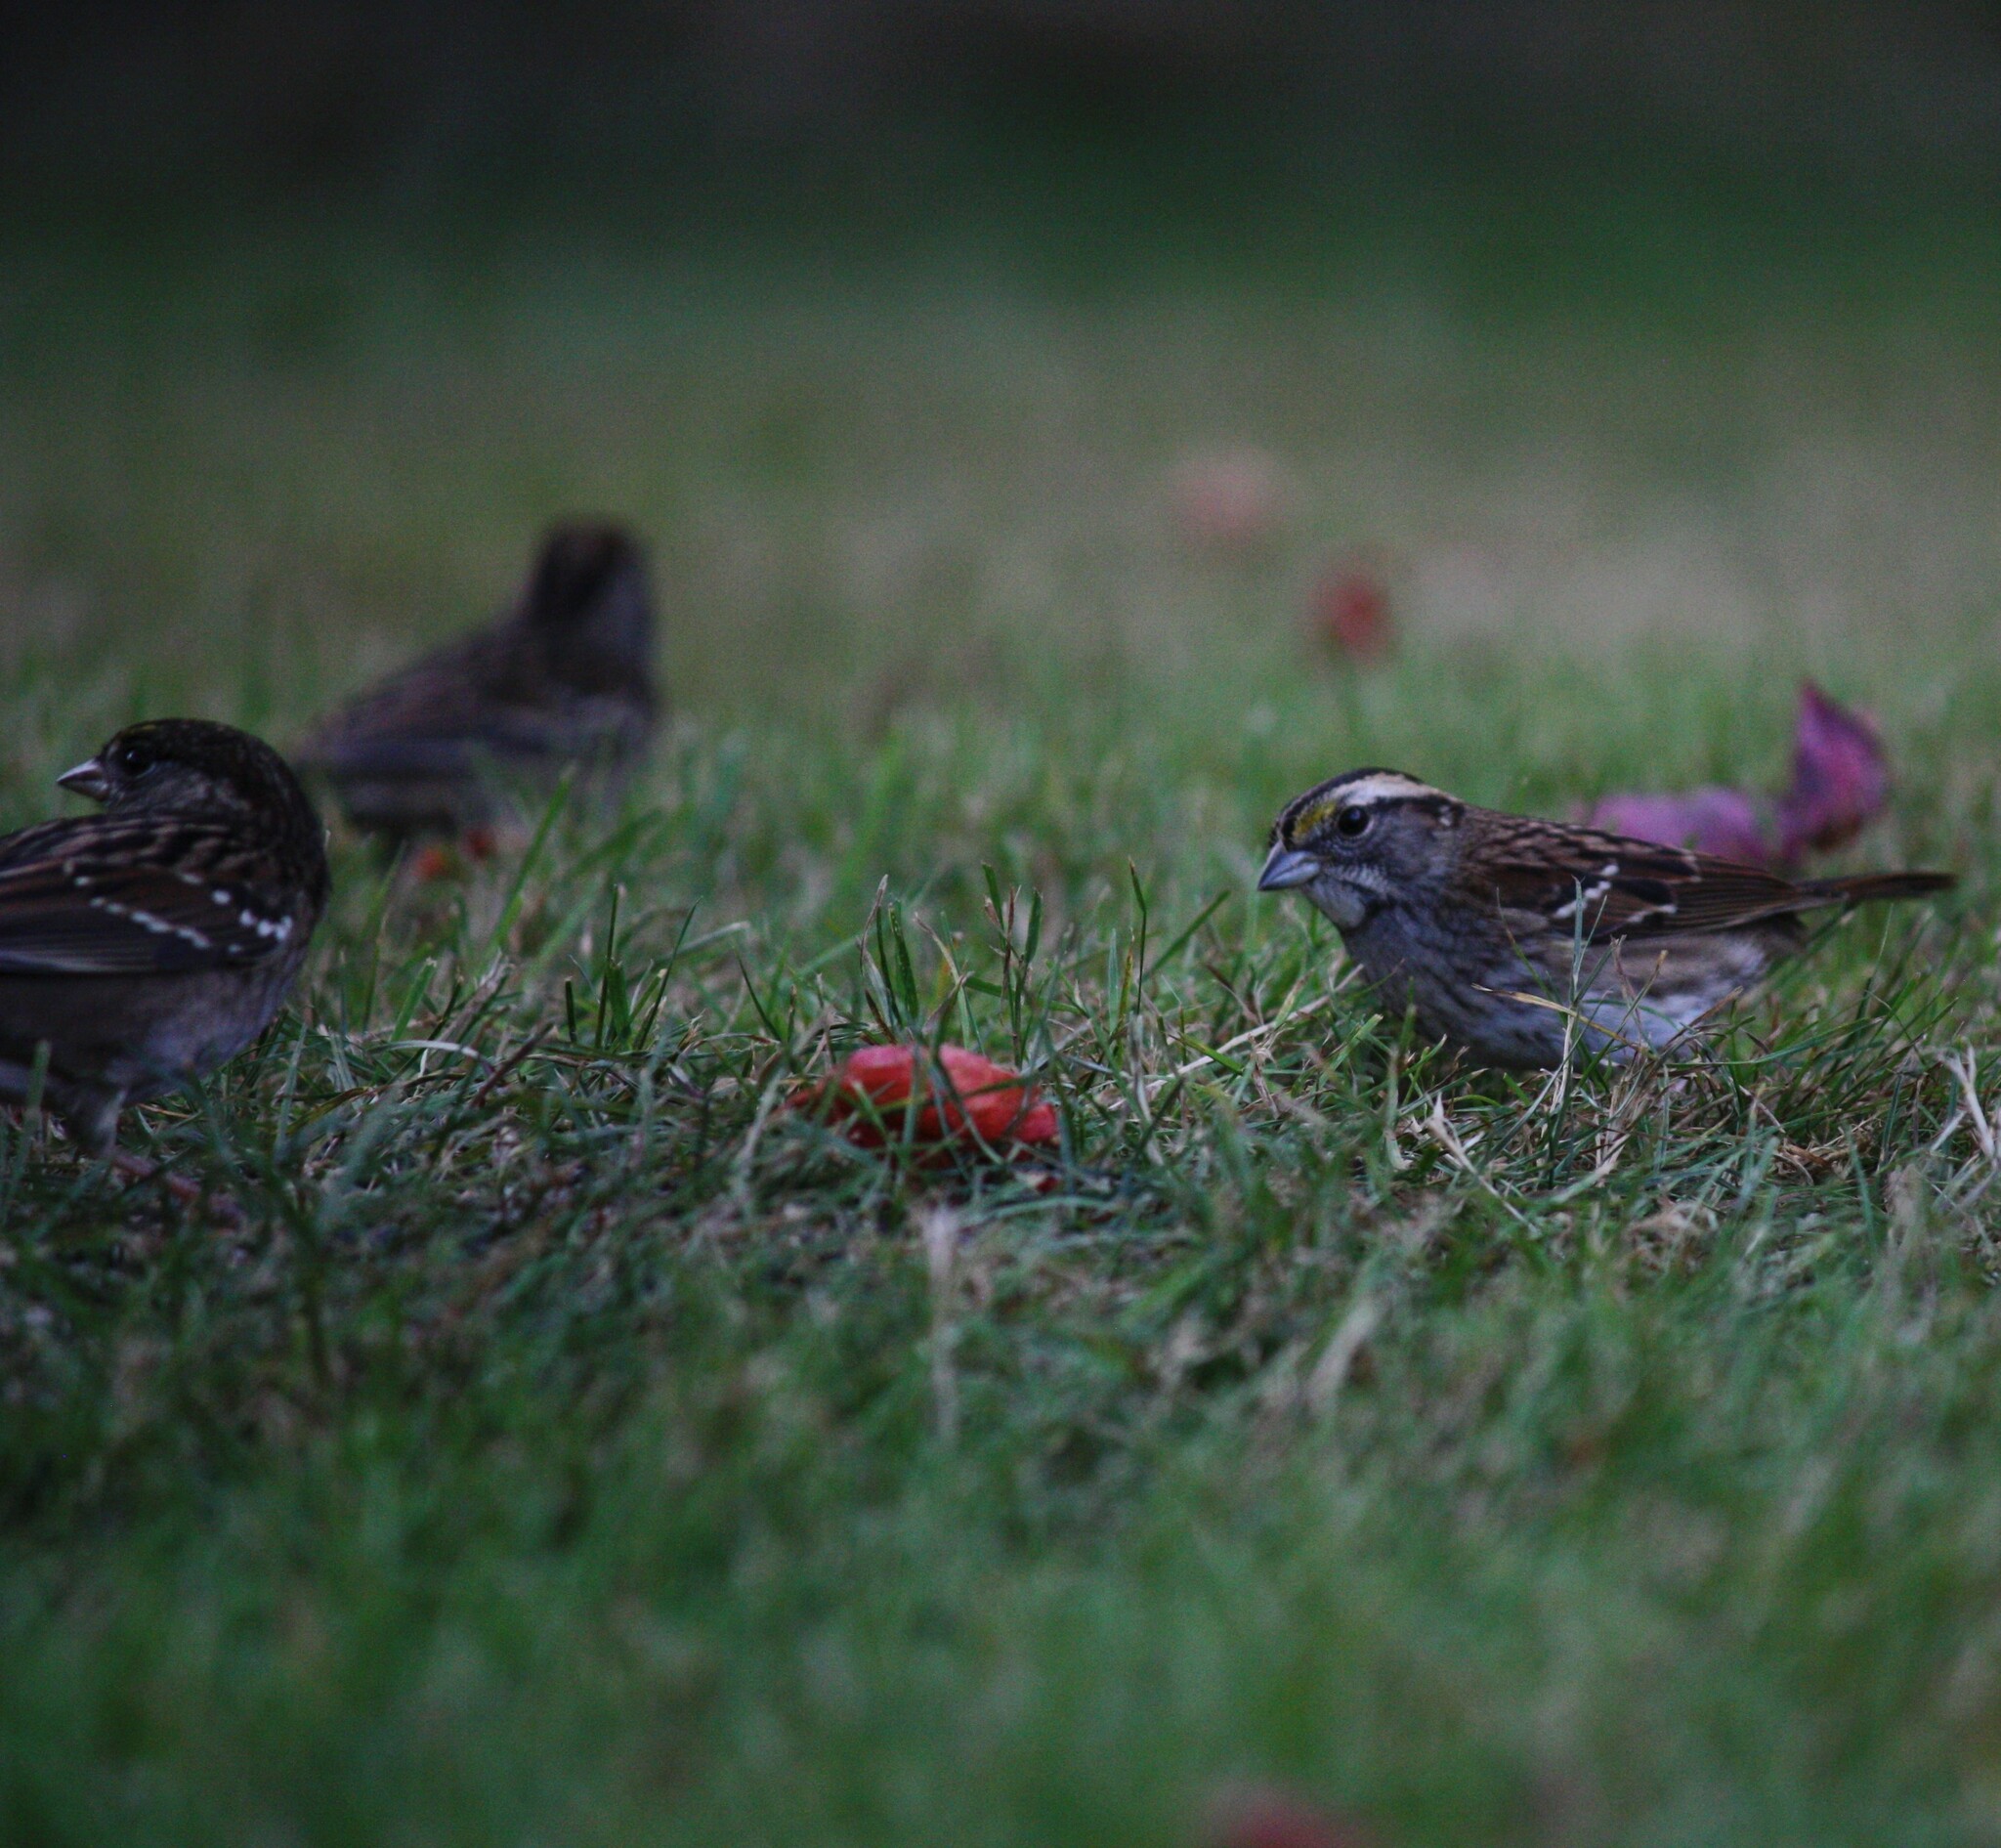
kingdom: Animalia
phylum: Chordata
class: Aves
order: Passeriformes
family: Passerellidae
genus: Zonotrichia
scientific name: Zonotrichia albicollis
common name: White-throated sparrow
